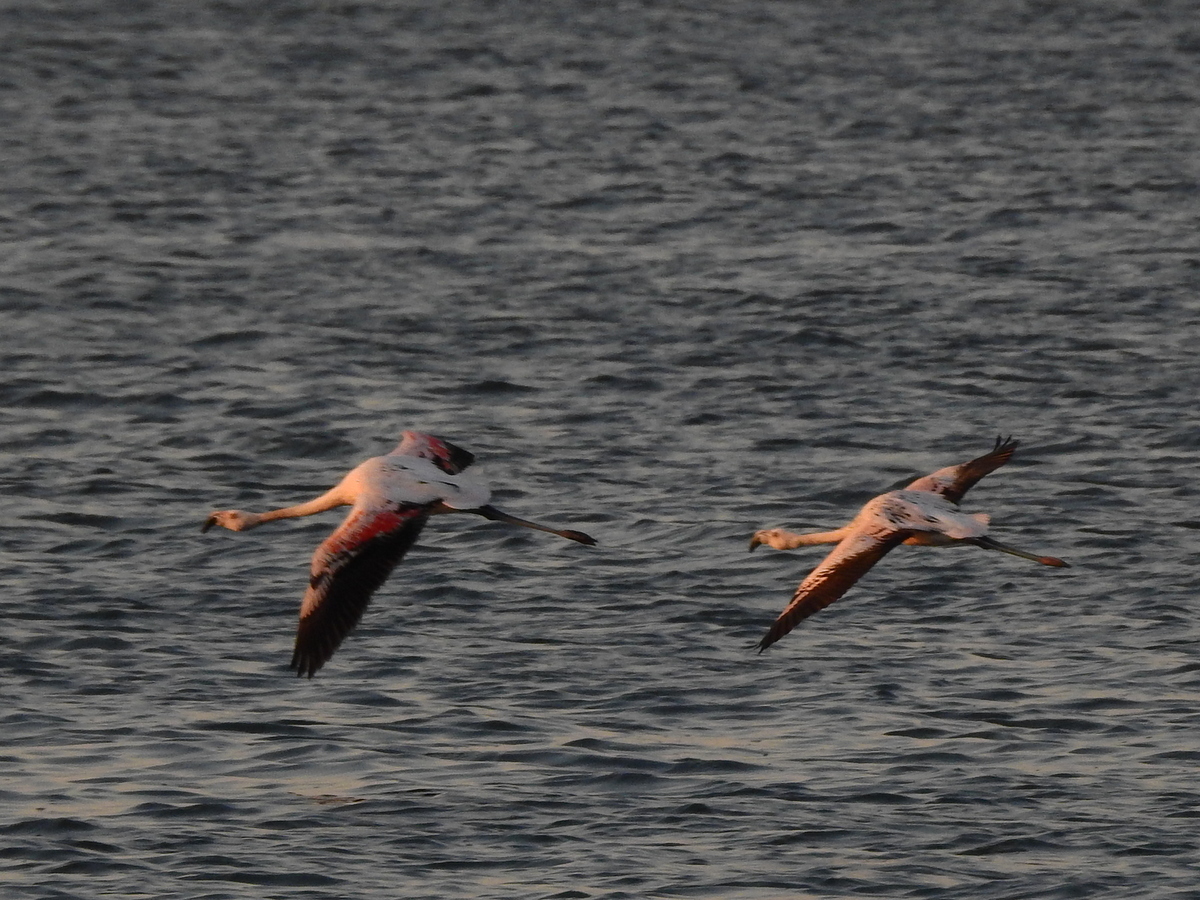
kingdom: Animalia
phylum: Chordata
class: Aves
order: Phoenicopteriformes
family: Phoenicopteridae
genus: Phoenicopterus
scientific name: Phoenicopterus chilensis
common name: Chilean flamingo
